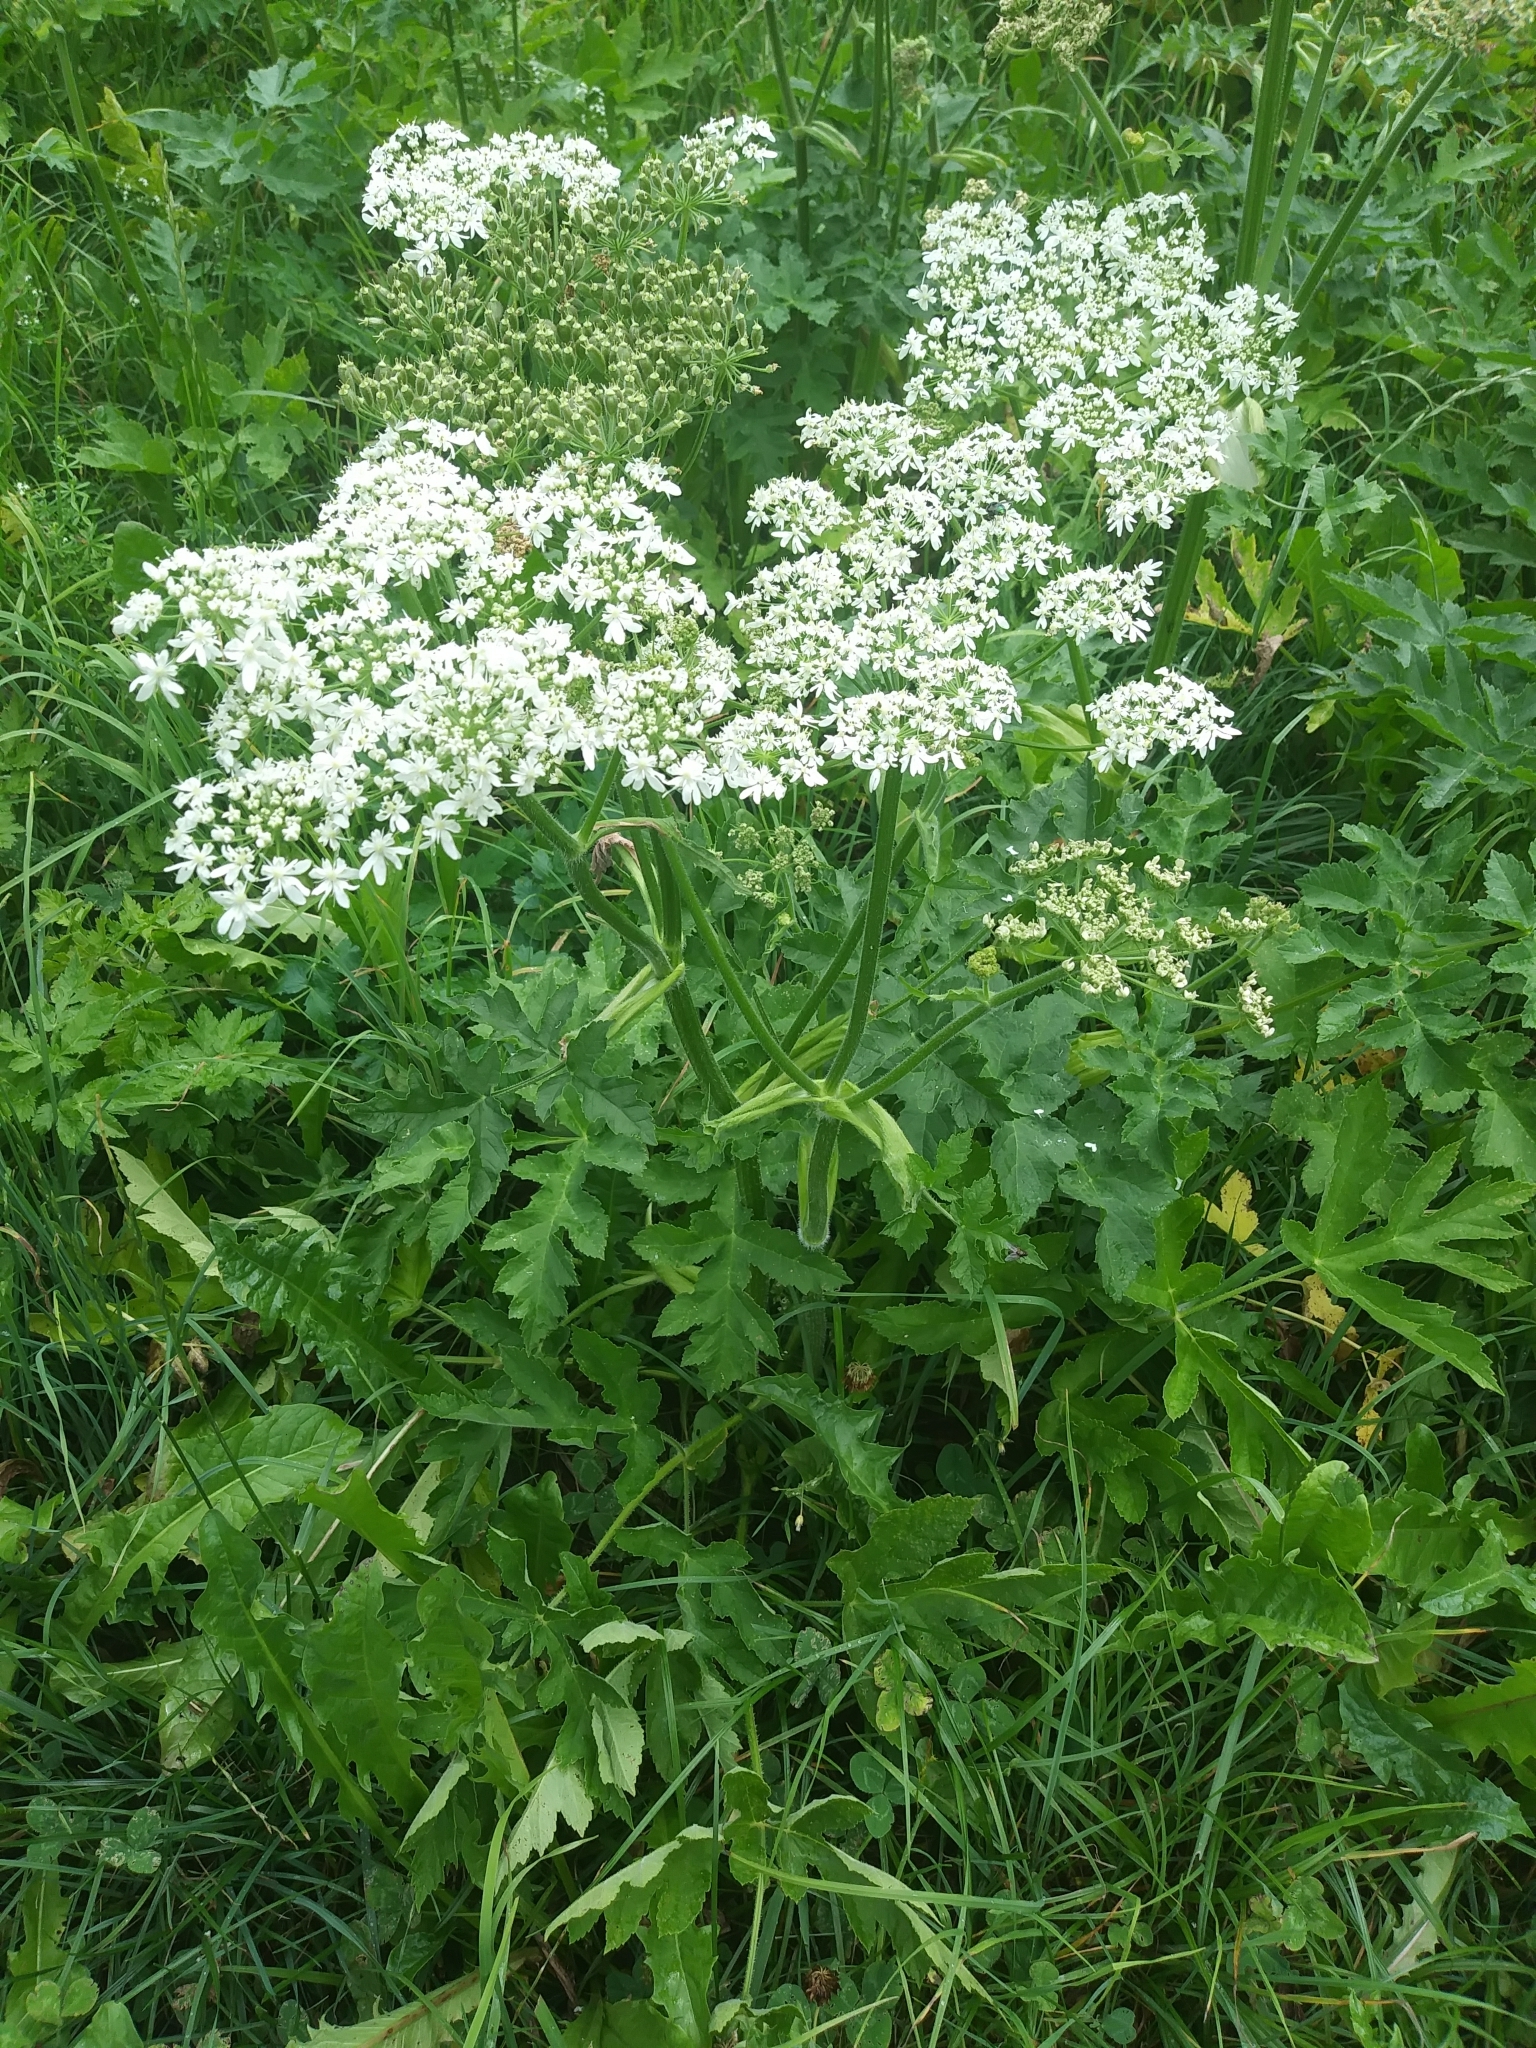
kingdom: Plantae
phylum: Tracheophyta
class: Magnoliopsida
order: Apiales
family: Apiaceae
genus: Heracleum
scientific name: Heracleum sphondylium
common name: Hogweed
